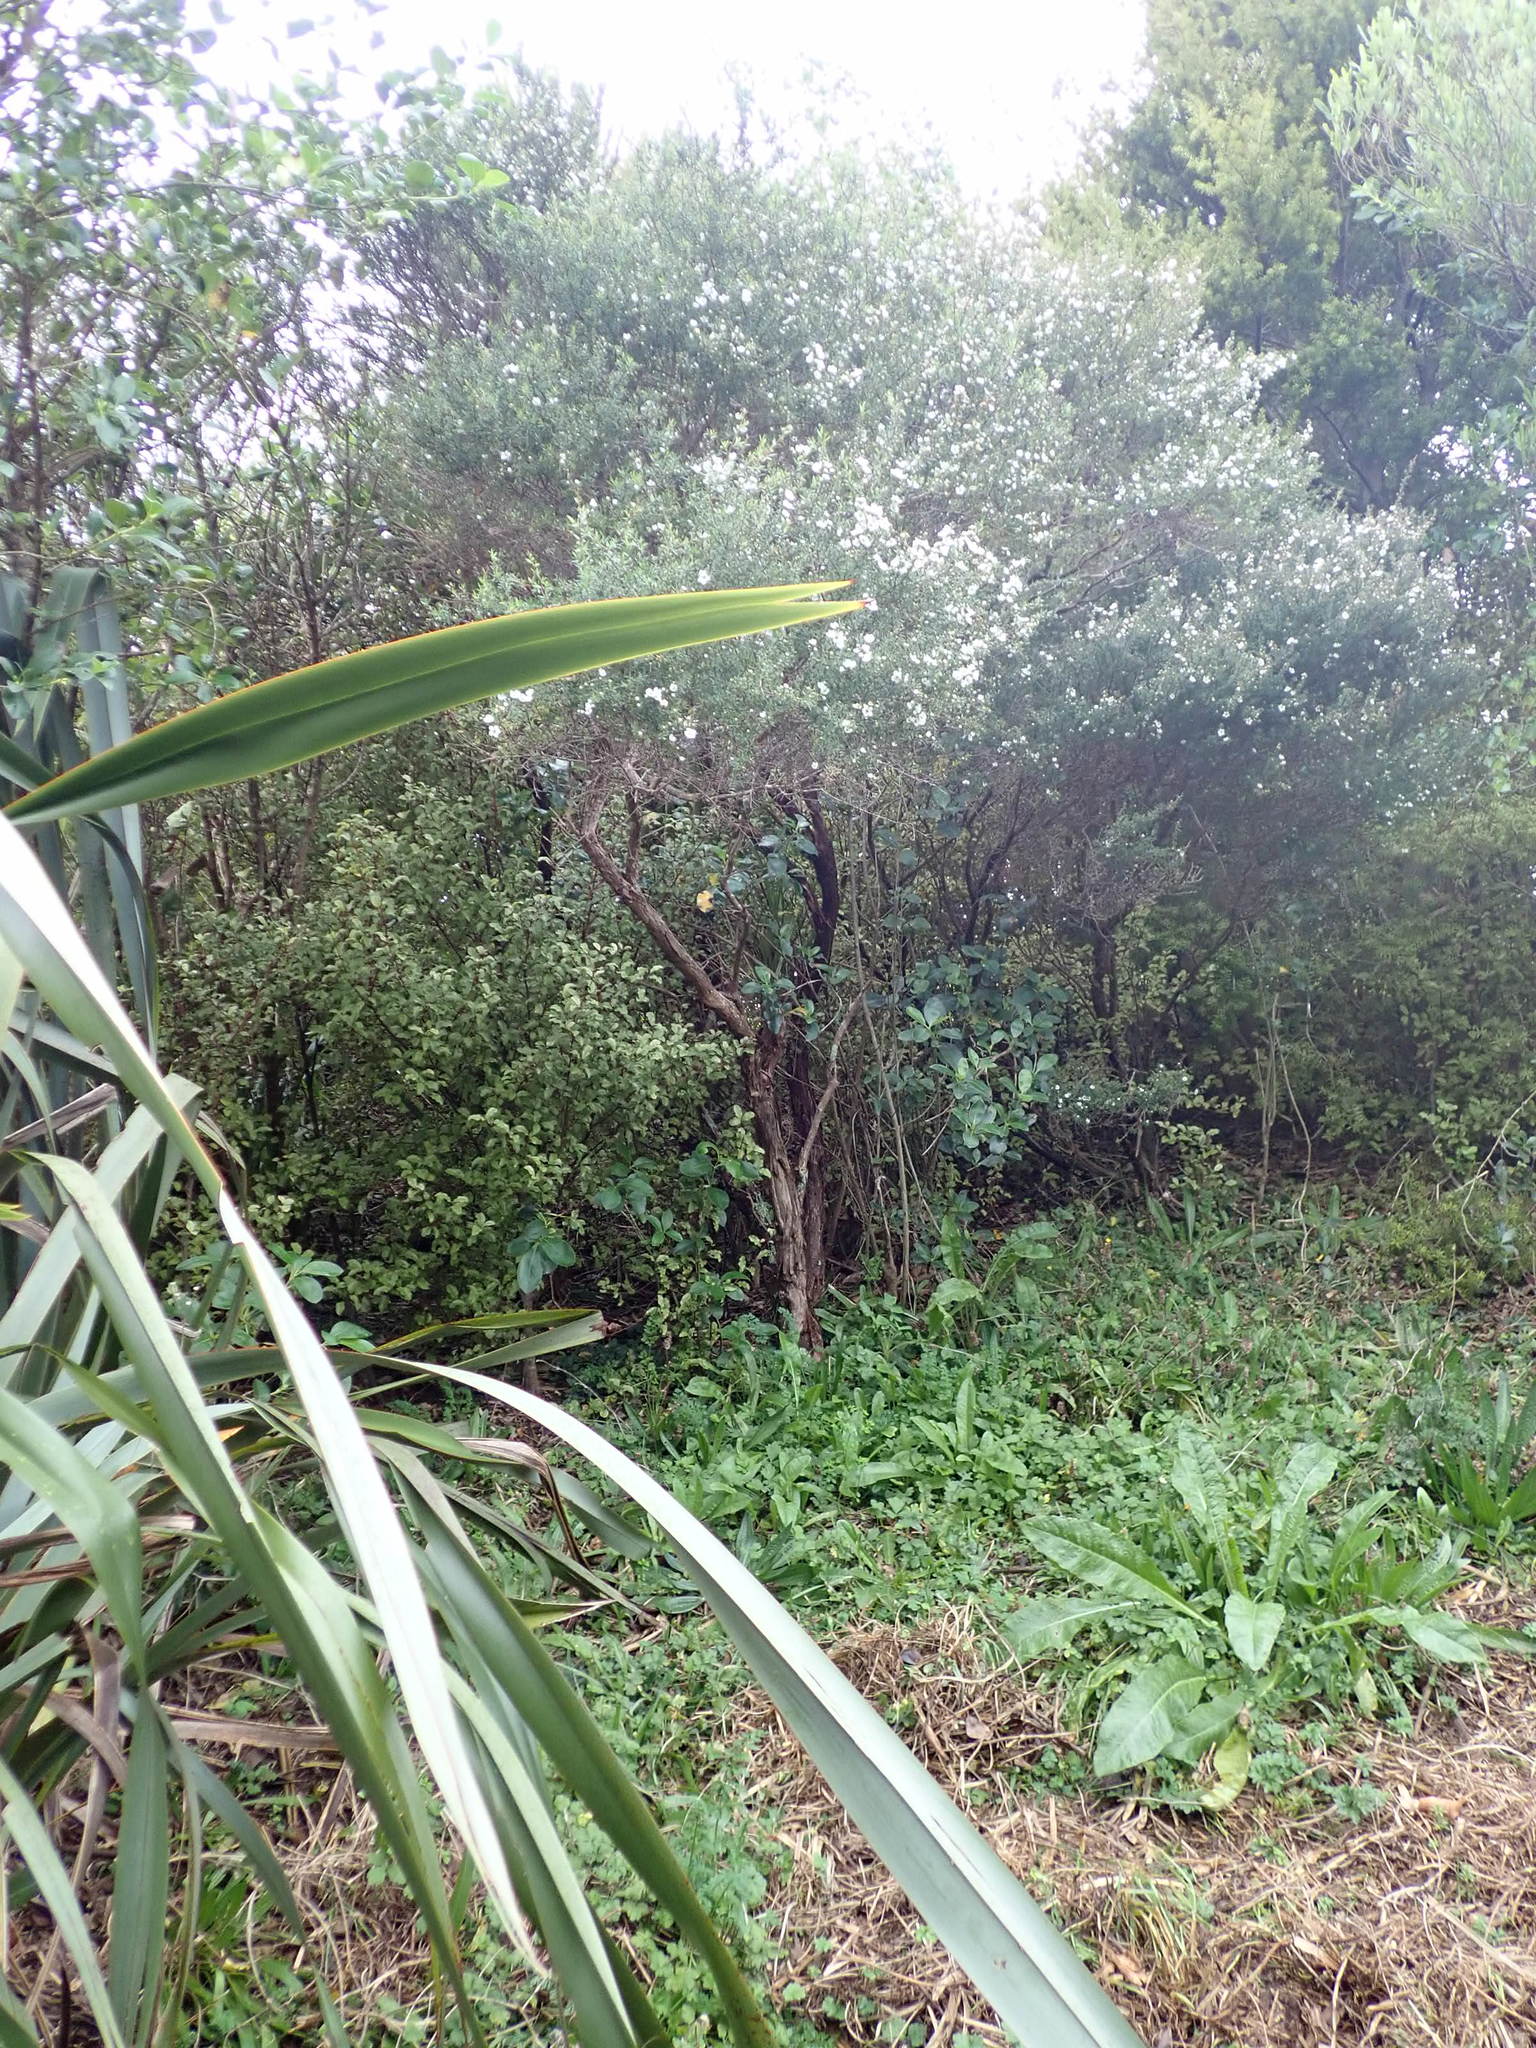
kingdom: Plantae
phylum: Tracheophyta
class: Magnoliopsida
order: Asterales
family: Asteraceae
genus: Helminthotheca
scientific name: Helminthotheca echioides
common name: Ox-tongue
